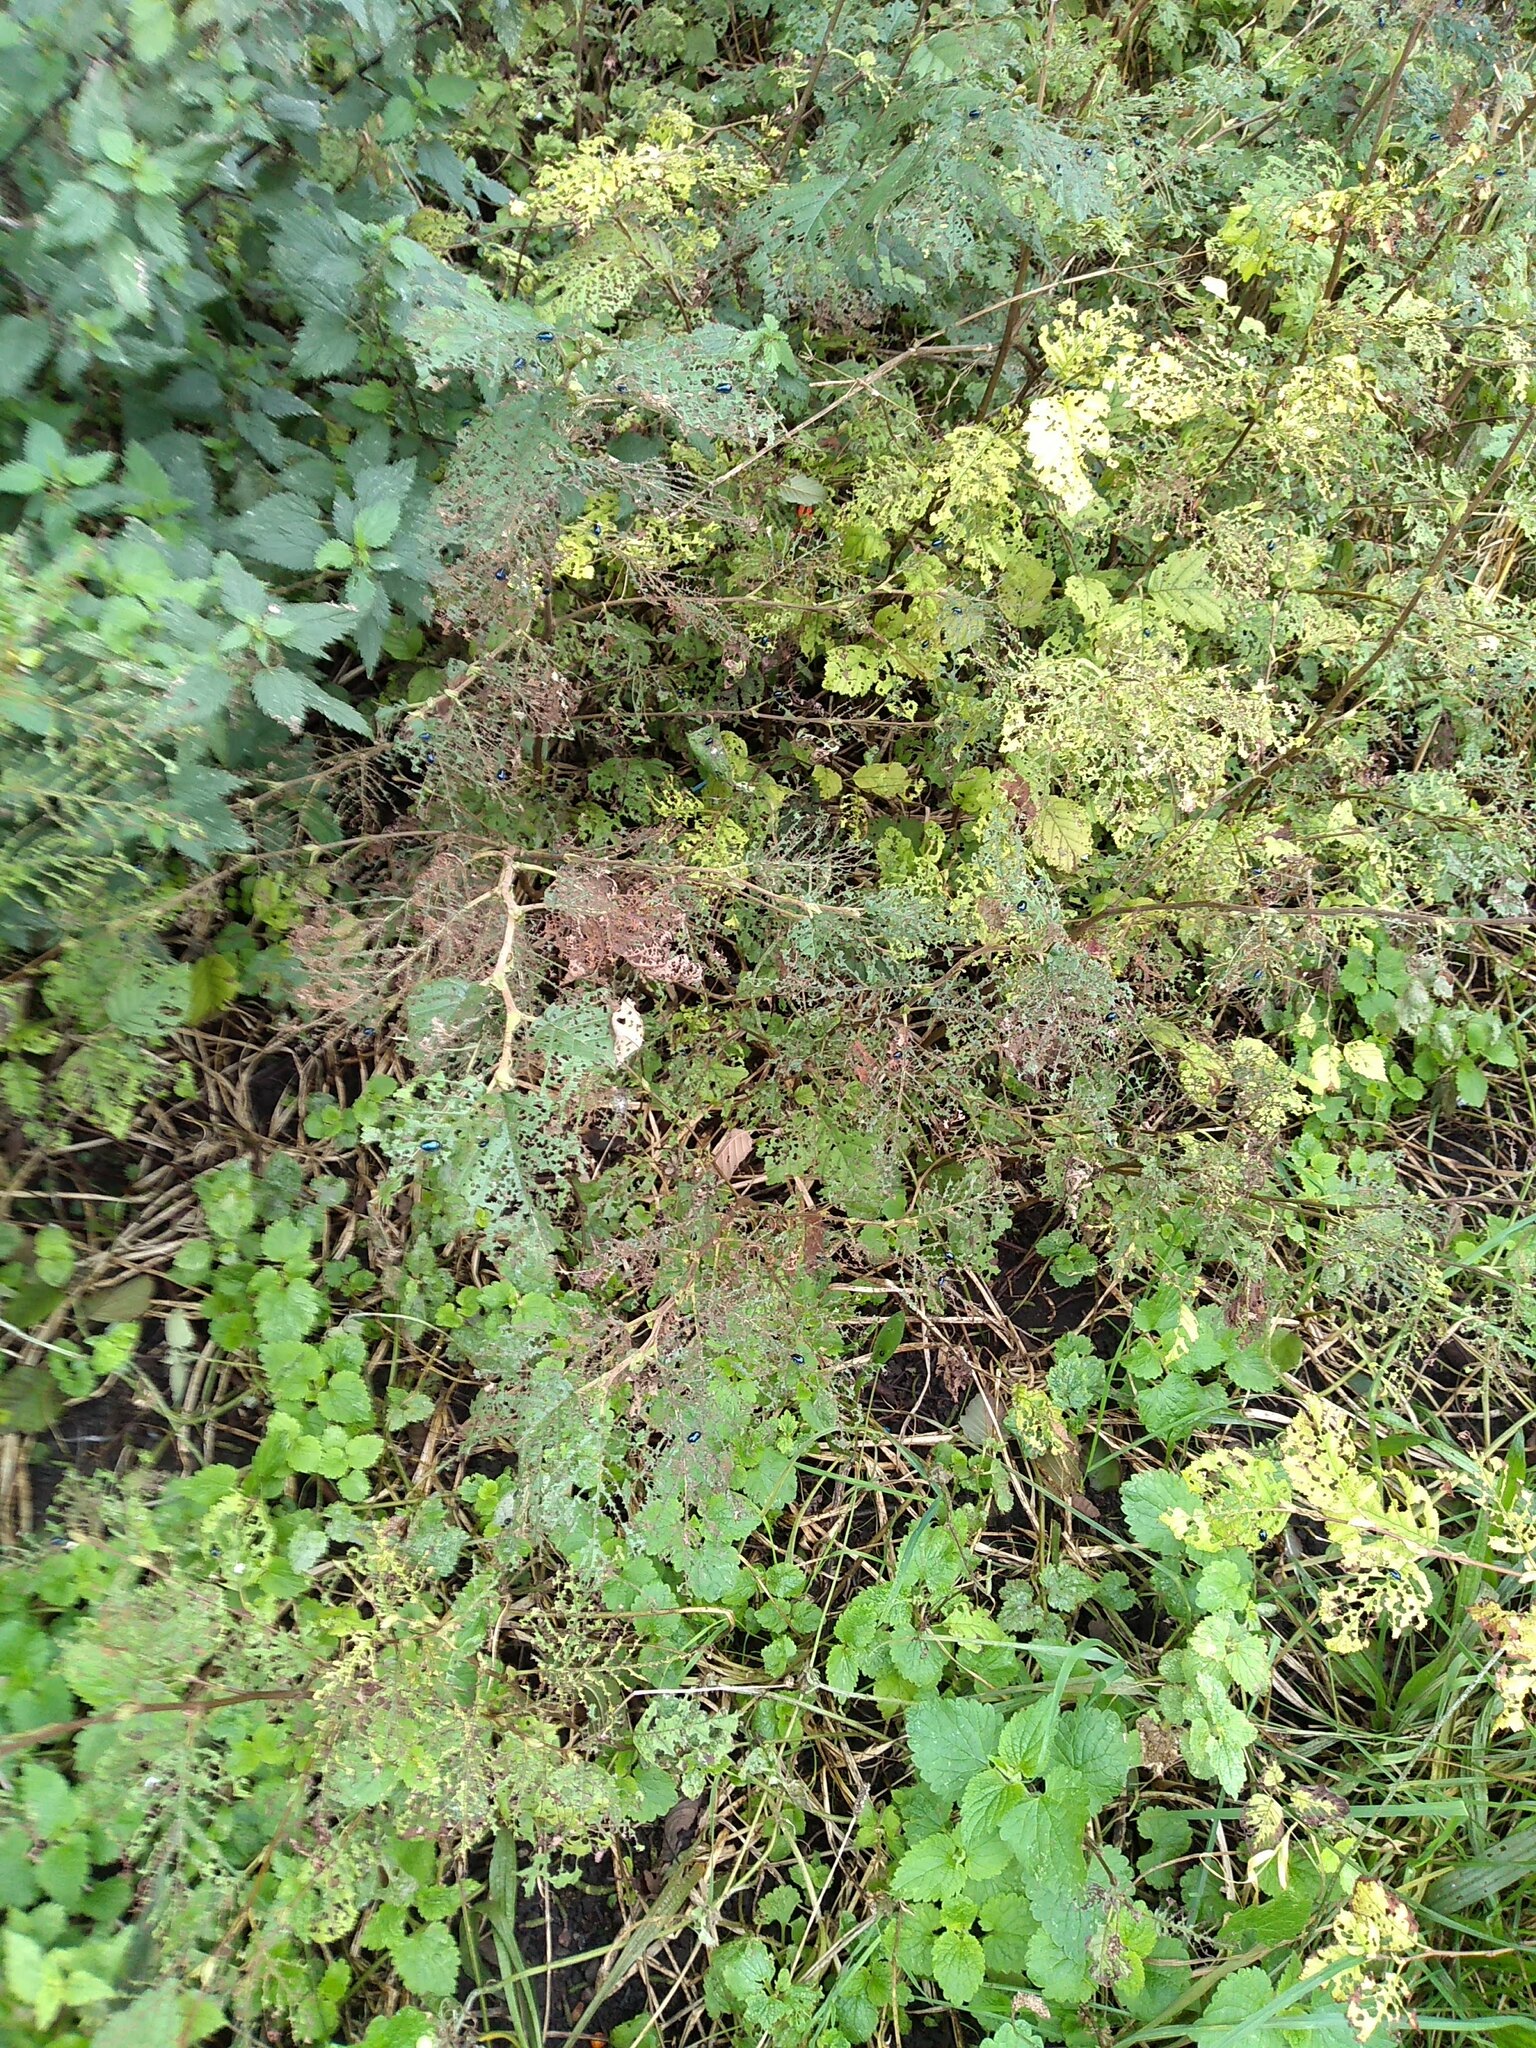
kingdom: Animalia
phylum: Arthropoda
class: Insecta
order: Coleoptera
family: Chrysomelidae
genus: Agelastica
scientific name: Agelastica alni
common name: Alder leaf beetle
